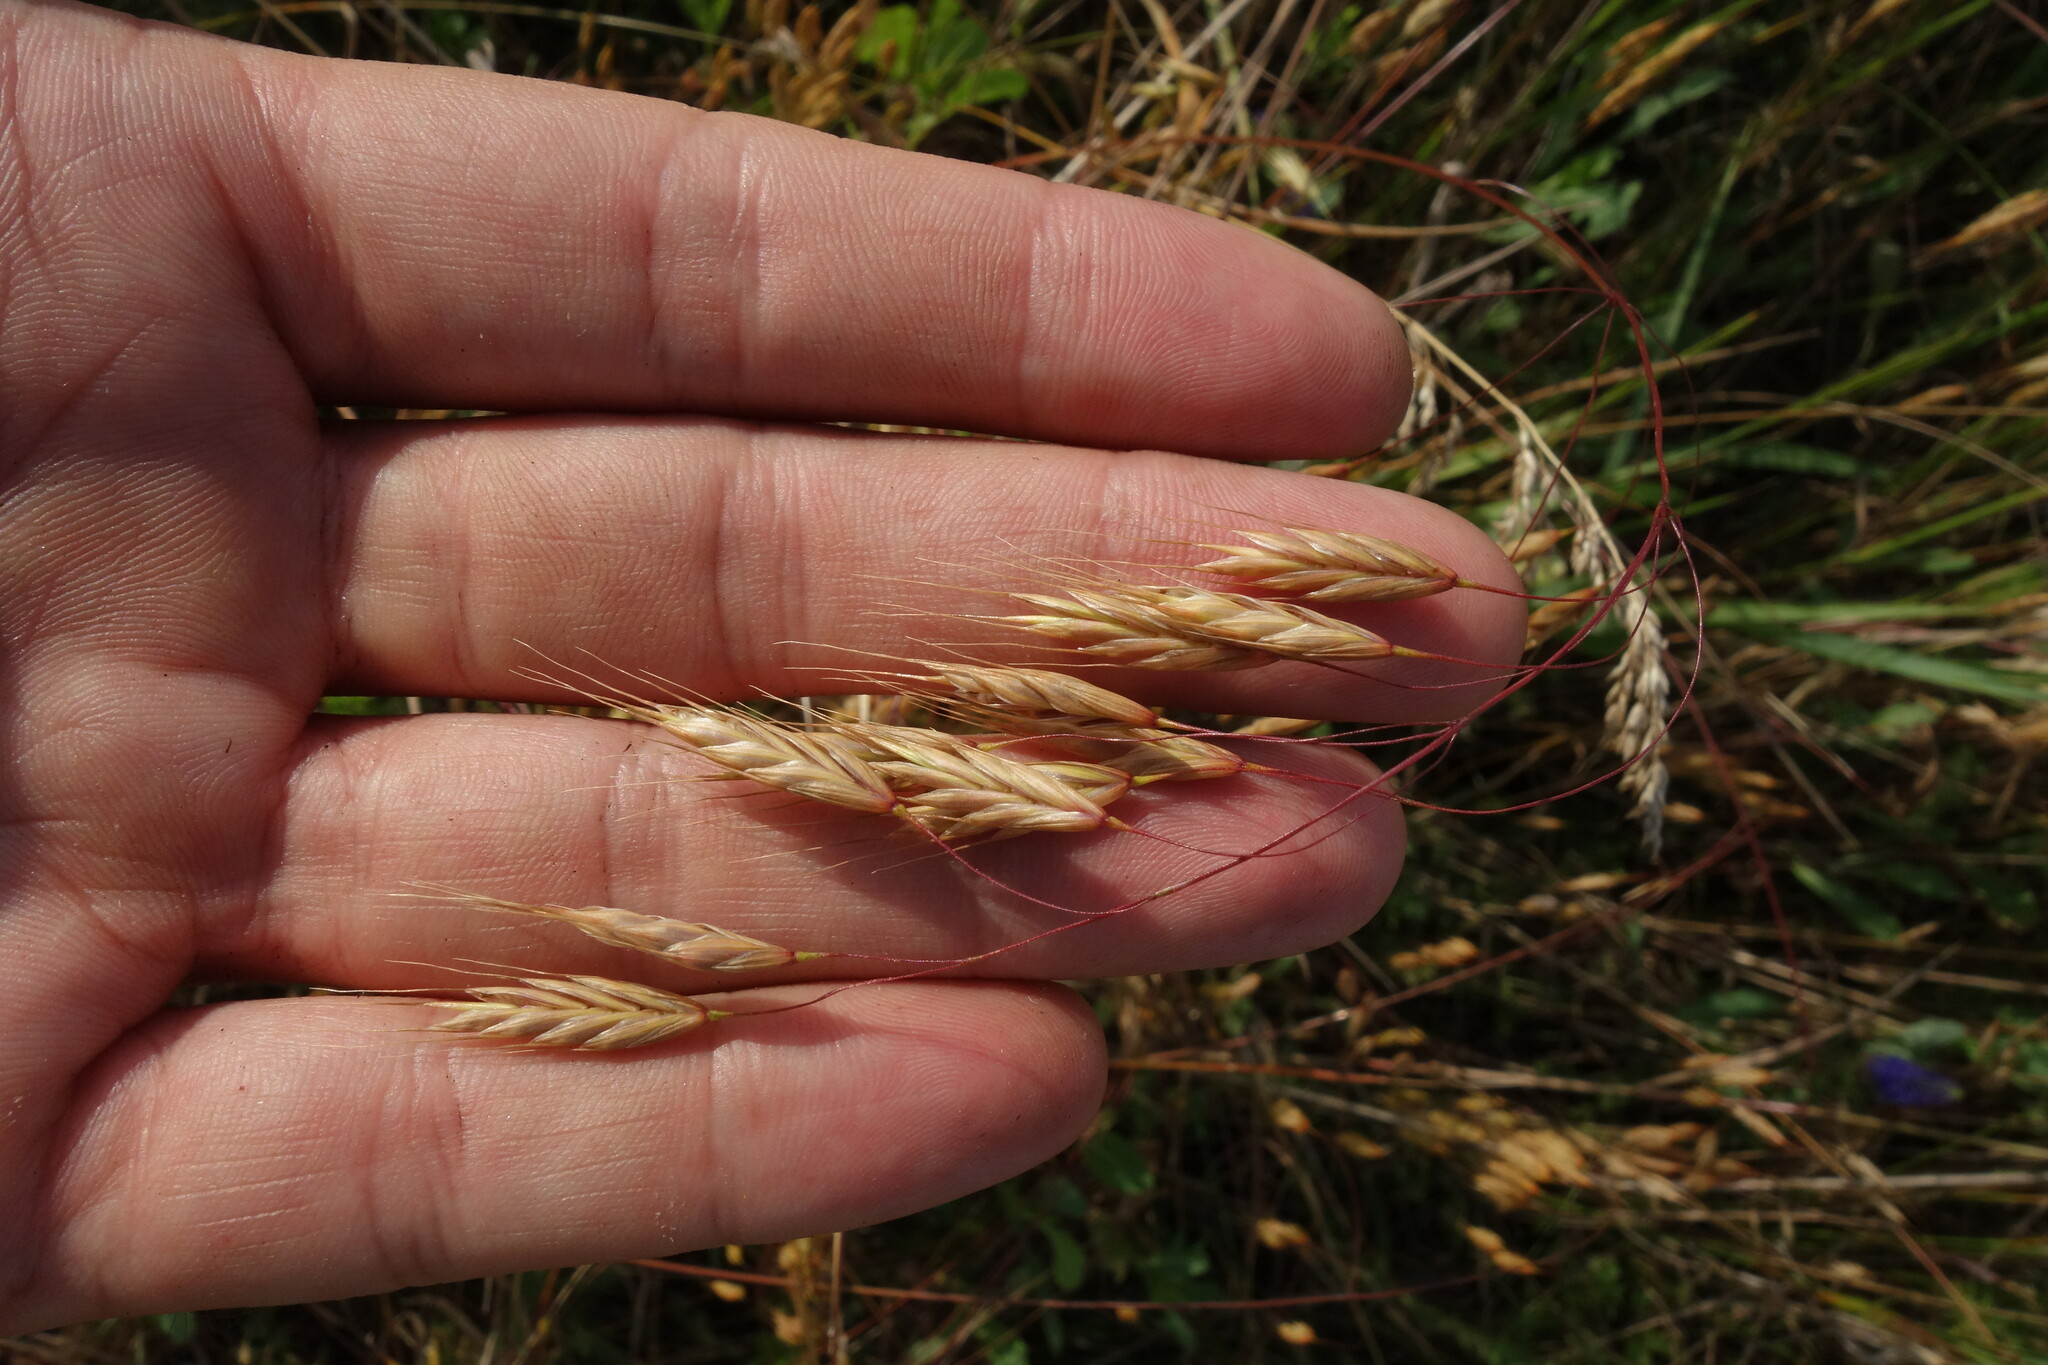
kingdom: Plantae
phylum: Tracheophyta
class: Liliopsida
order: Poales
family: Poaceae
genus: Bromus
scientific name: Bromus squarrosus
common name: Corn brome
